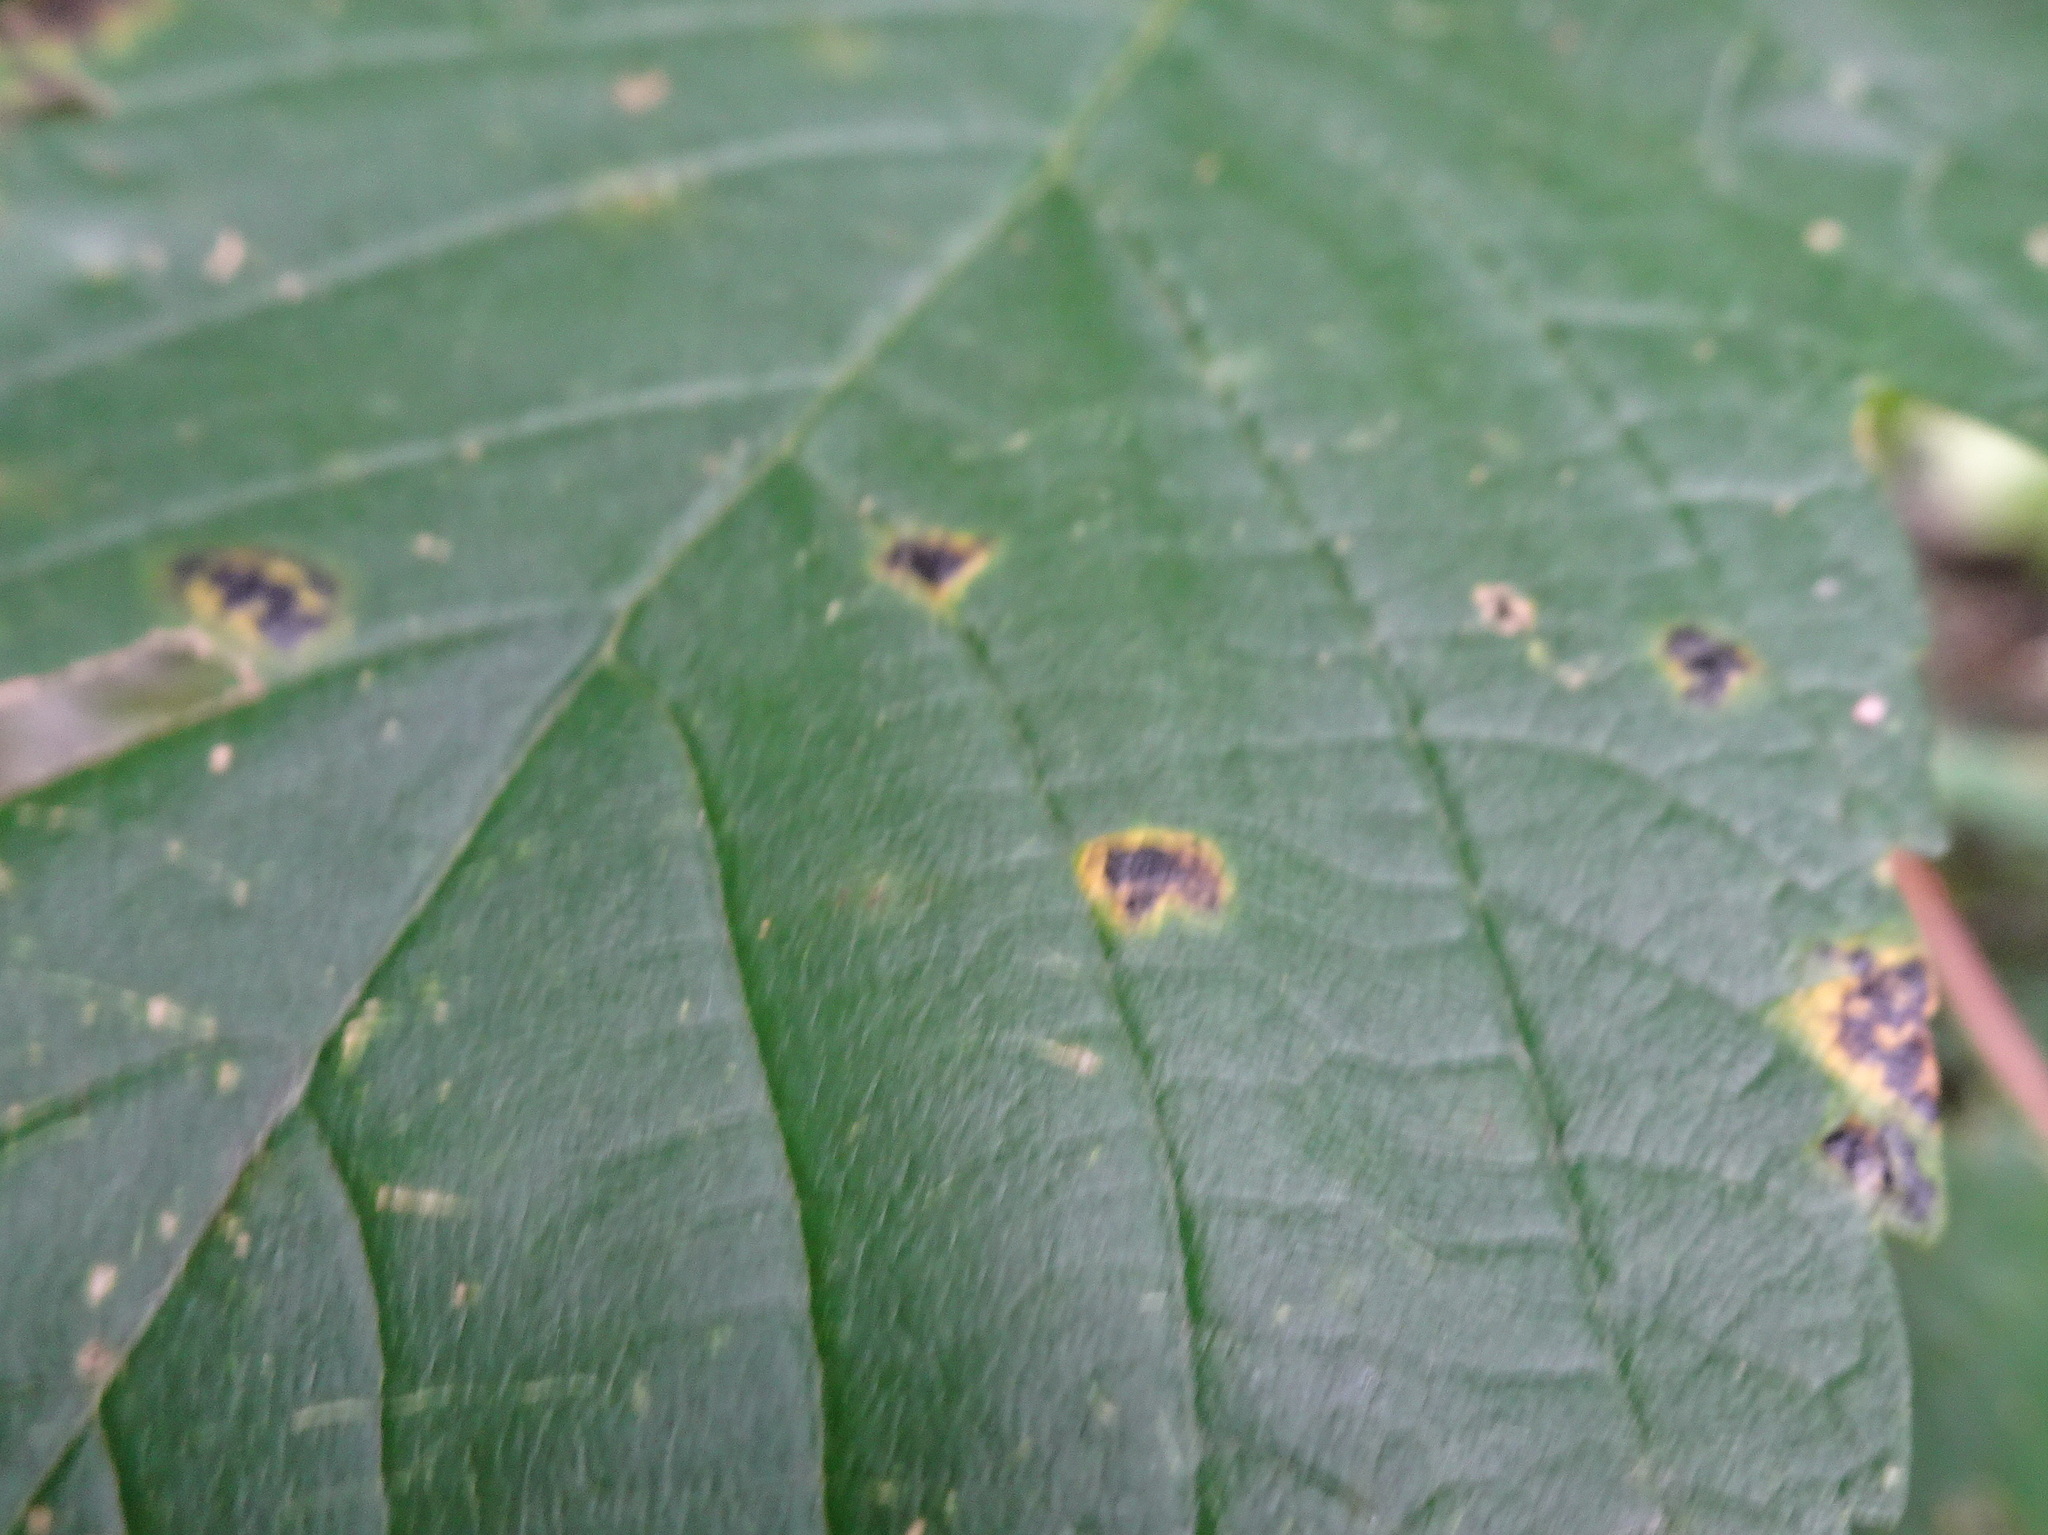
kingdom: Fungi
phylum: Ascomycota
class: Leotiomycetes
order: Rhytismatales
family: Rhytismataceae
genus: Rhytisma
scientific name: Rhytisma acerinum
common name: European tar spot
